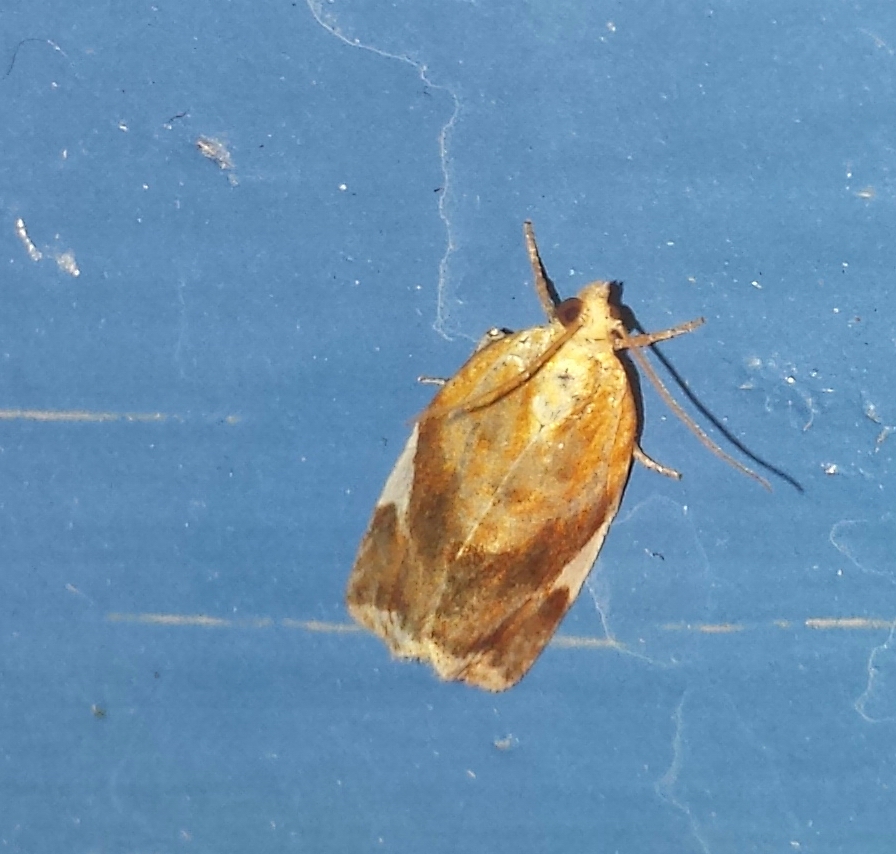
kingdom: Animalia
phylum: Arthropoda
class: Insecta
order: Lepidoptera
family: Tortricidae
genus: Clepsis
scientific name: Clepsis persicana
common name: White triangle tortrix
